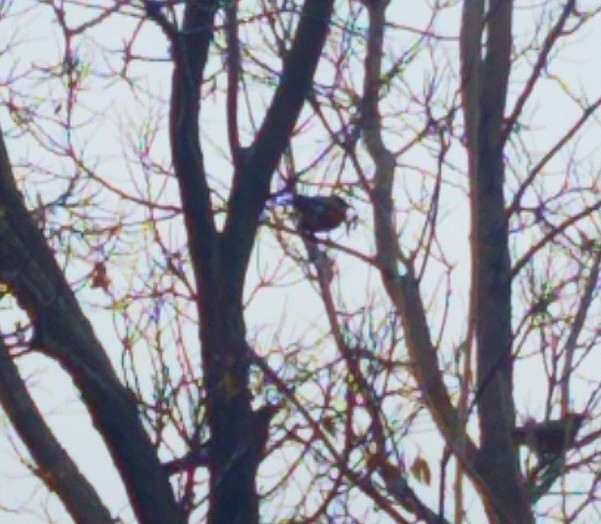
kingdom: Animalia
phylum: Chordata
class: Aves
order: Passeriformes
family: Turdidae
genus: Turdus
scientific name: Turdus migratorius
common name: American robin
